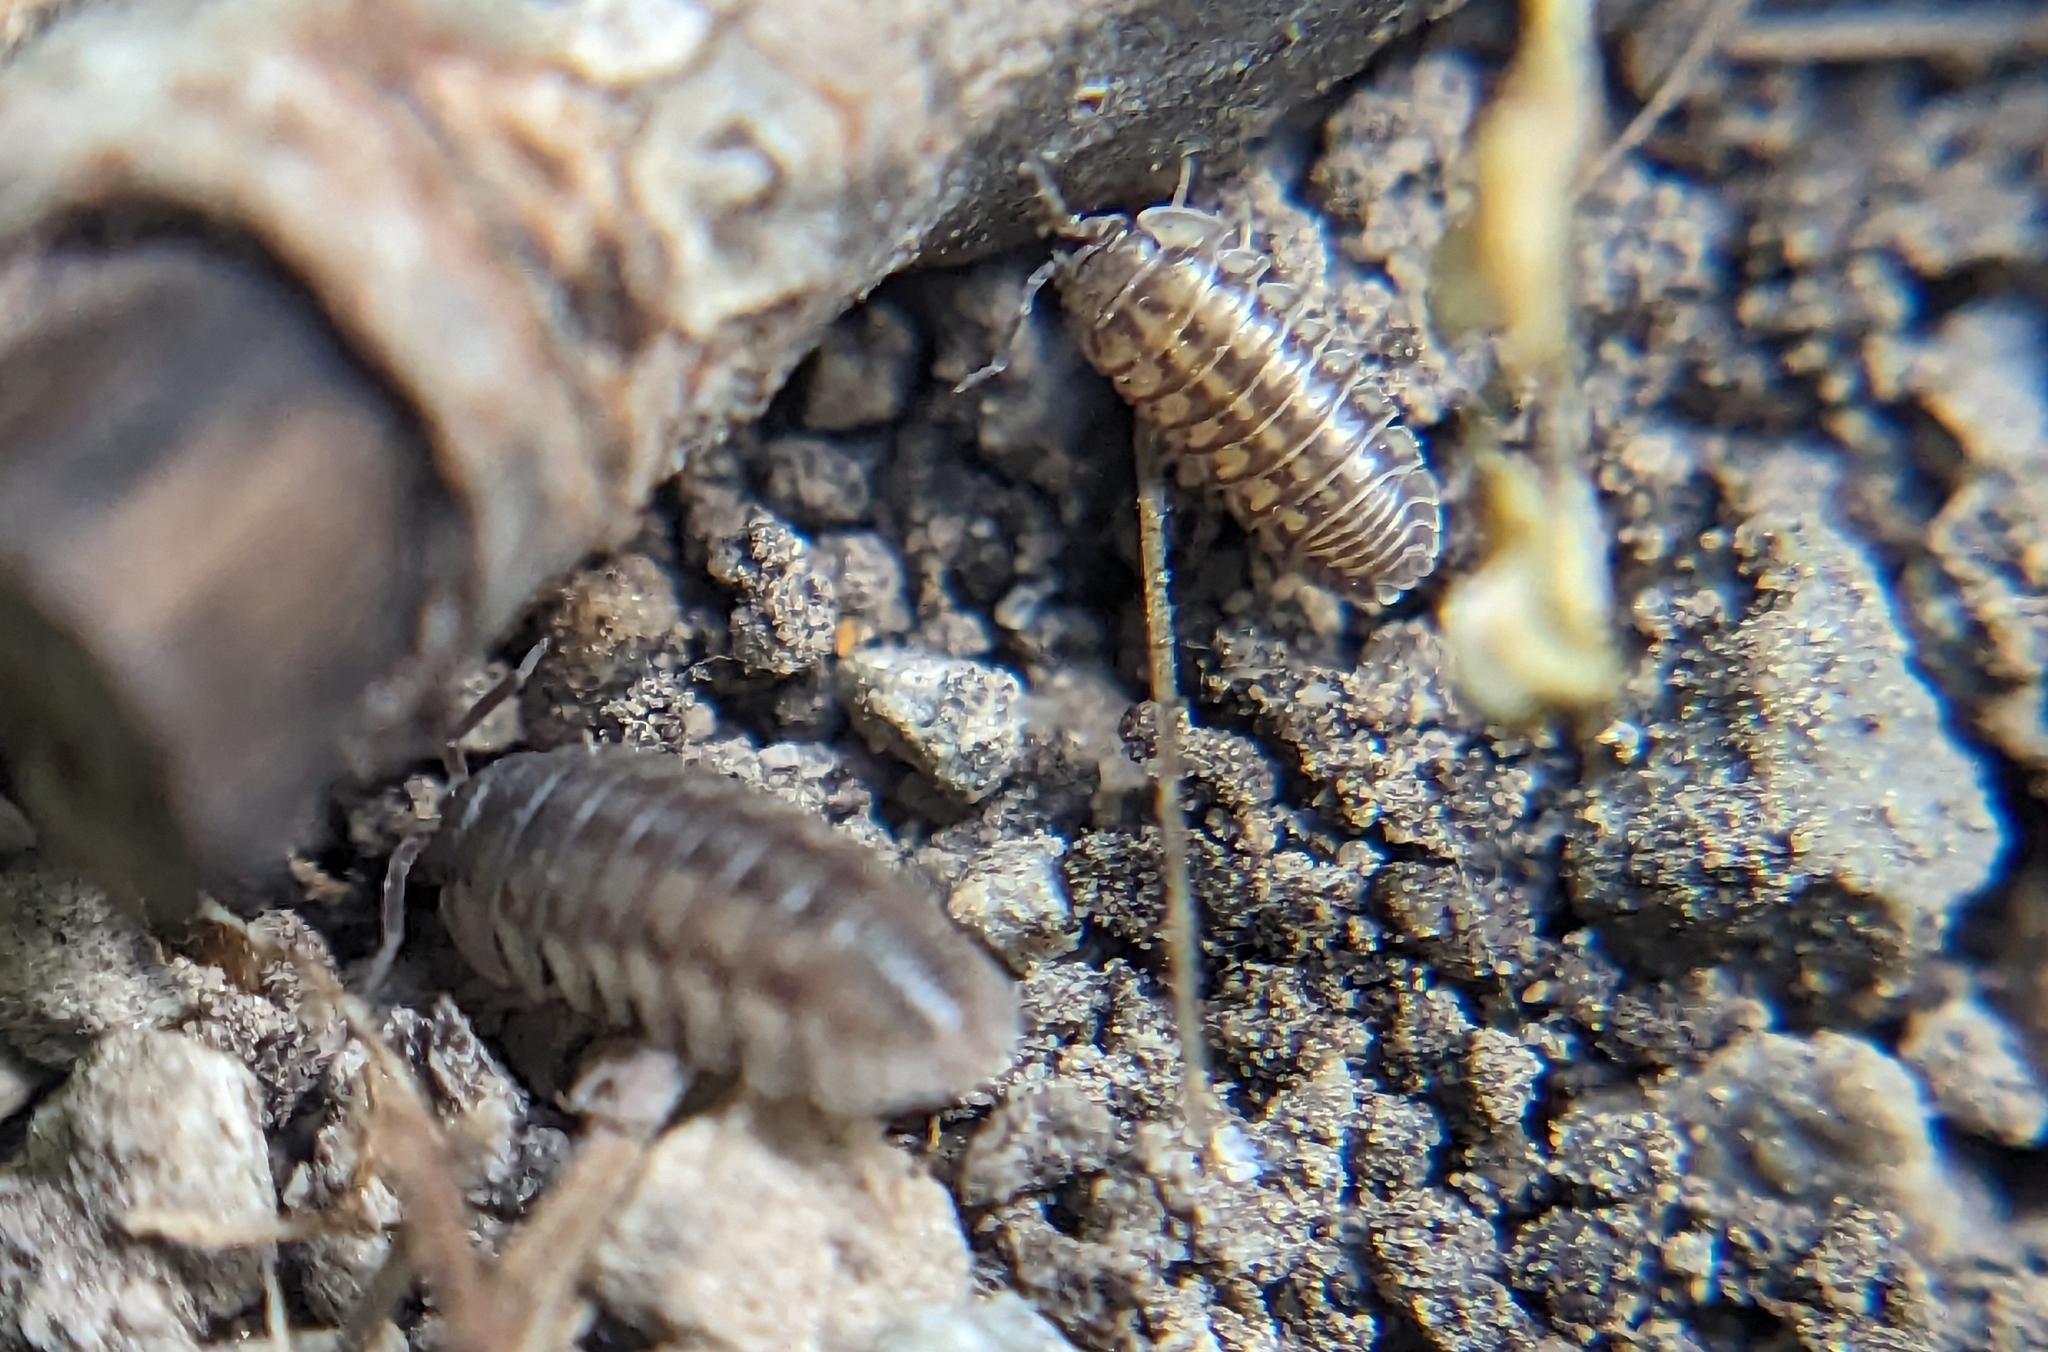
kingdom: Animalia
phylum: Arthropoda
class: Malacostraca
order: Isopoda
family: Armadillidiidae
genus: Armadillidium
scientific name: Armadillidium nasatum
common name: Isopod
